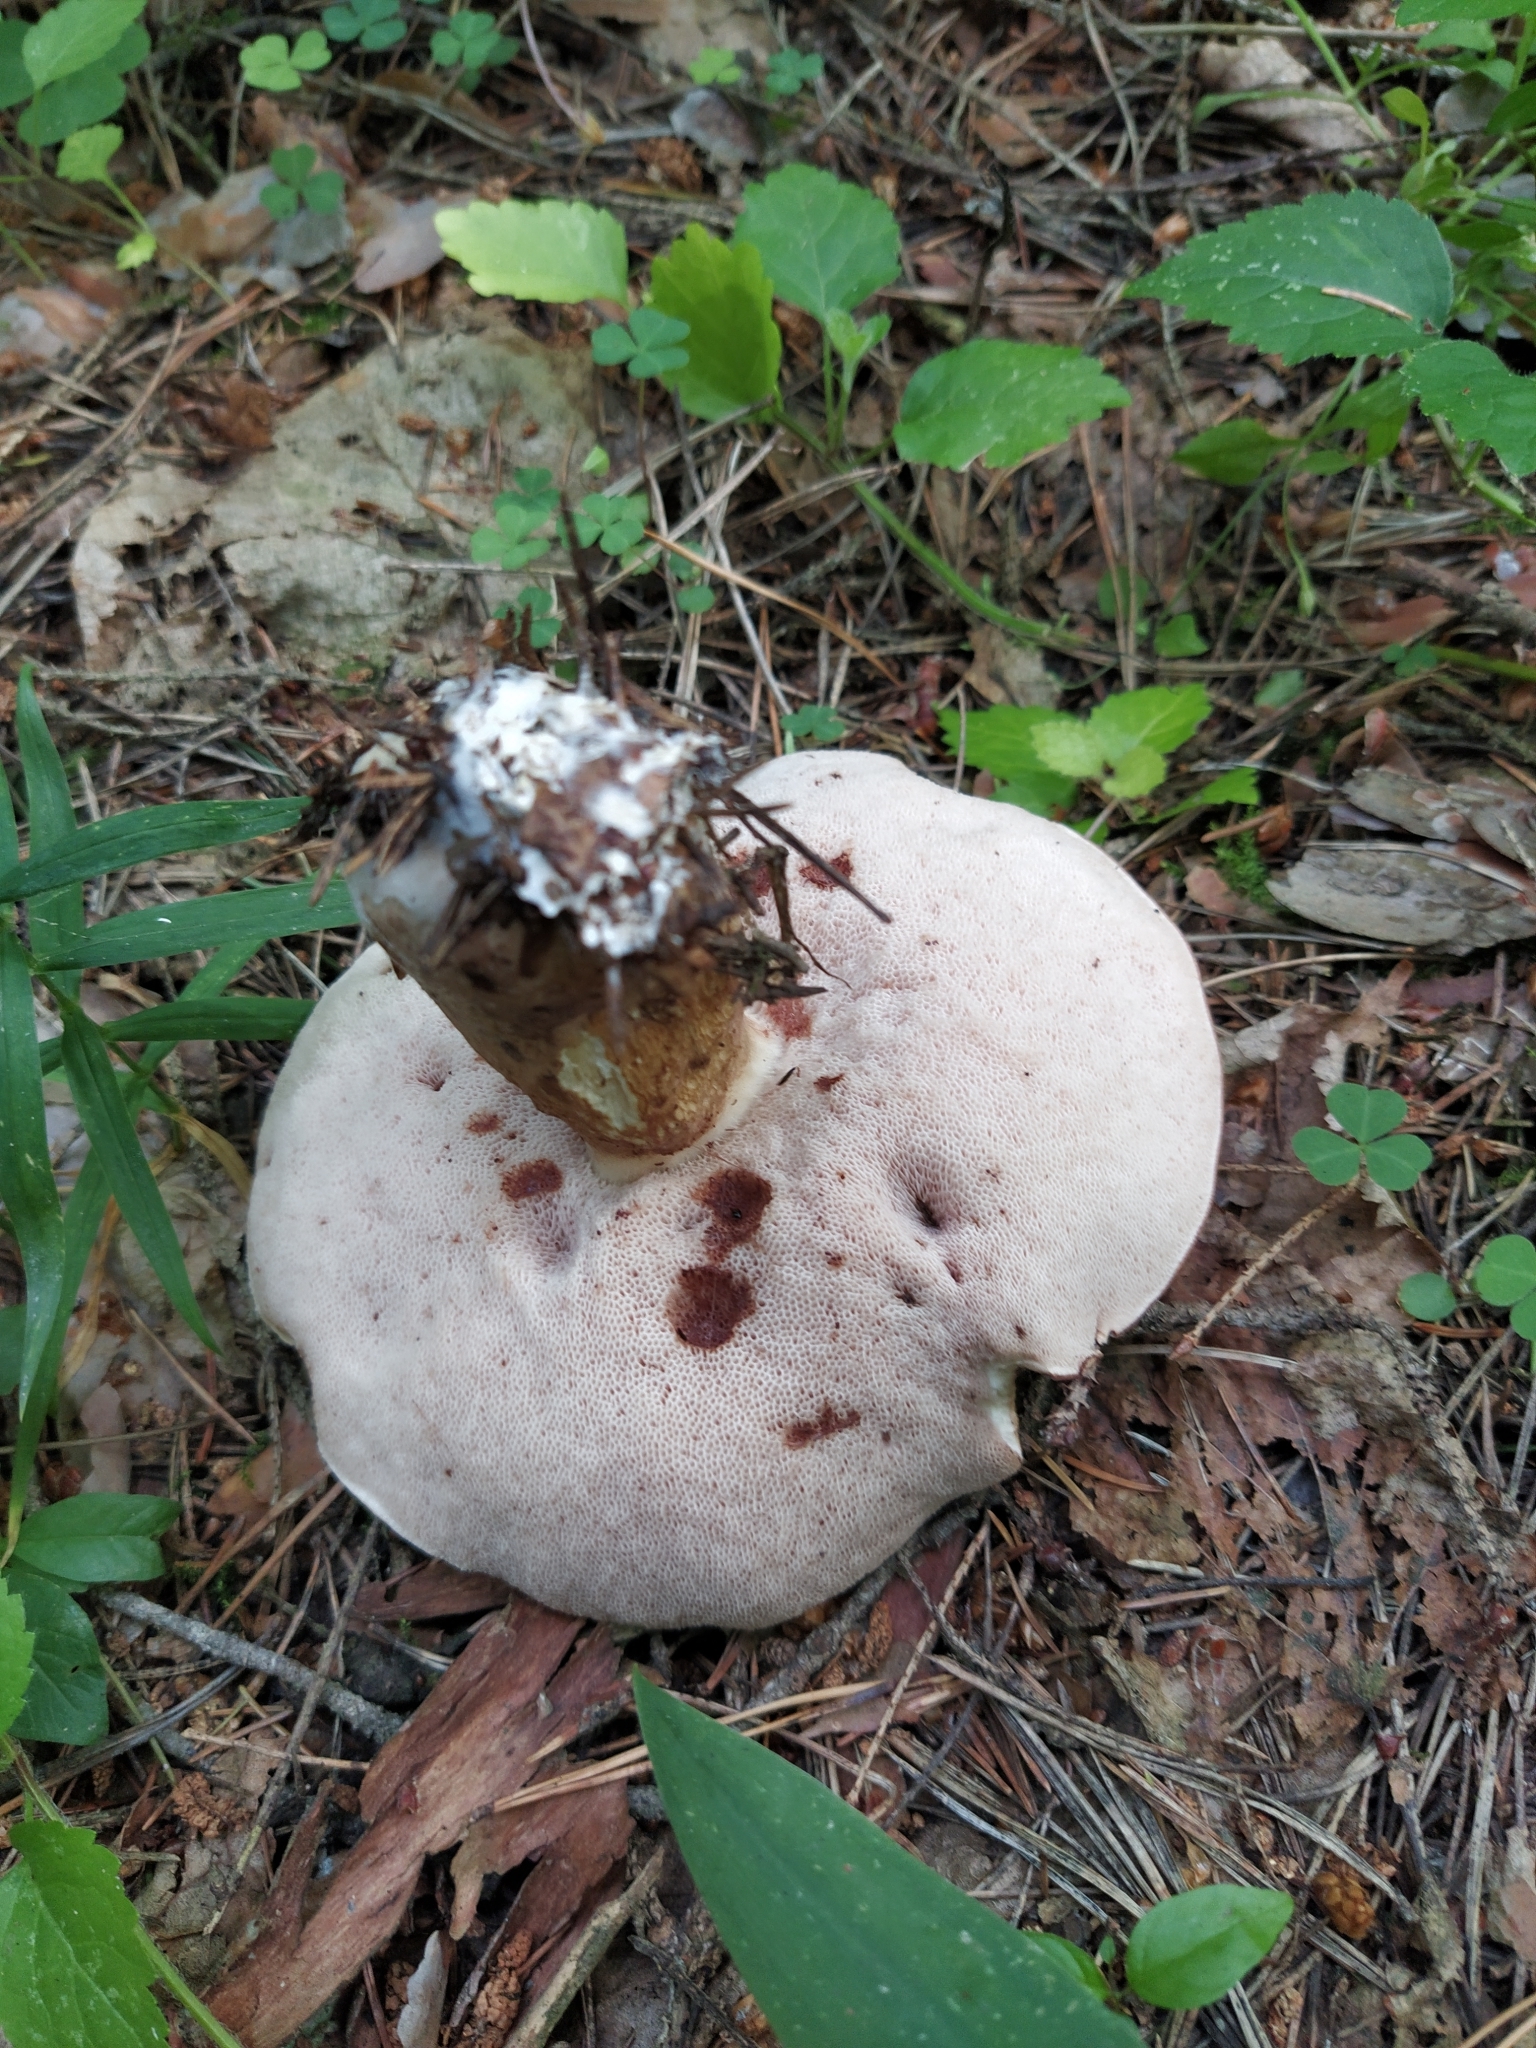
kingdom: Fungi
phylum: Basidiomycota
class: Agaricomycetes
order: Boletales
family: Boletaceae
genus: Tylopilus
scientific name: Tylopilus felleus
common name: Bitter bolete
